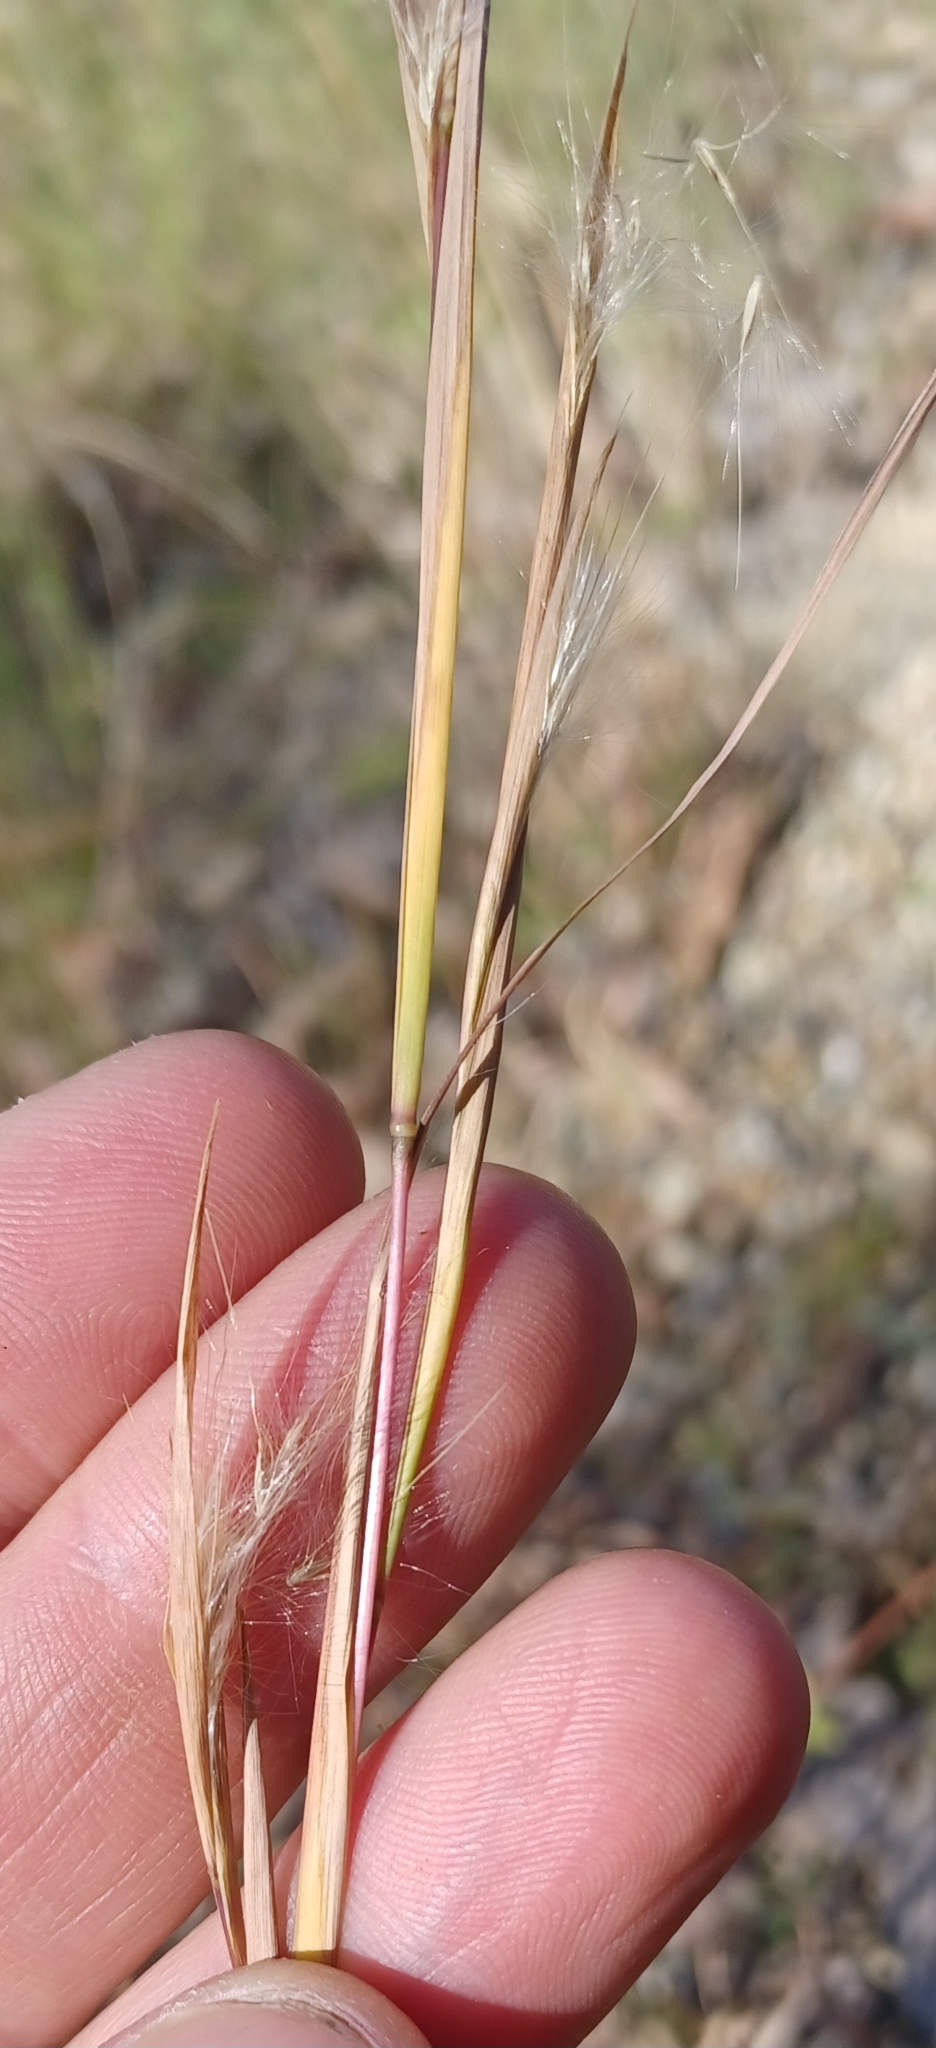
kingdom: Plantae
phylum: Tracheophyta
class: Liliopsida
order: Poales
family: Poaceae
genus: Andropogon
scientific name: Andropogon virginicus
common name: Broomsedge bluestem
